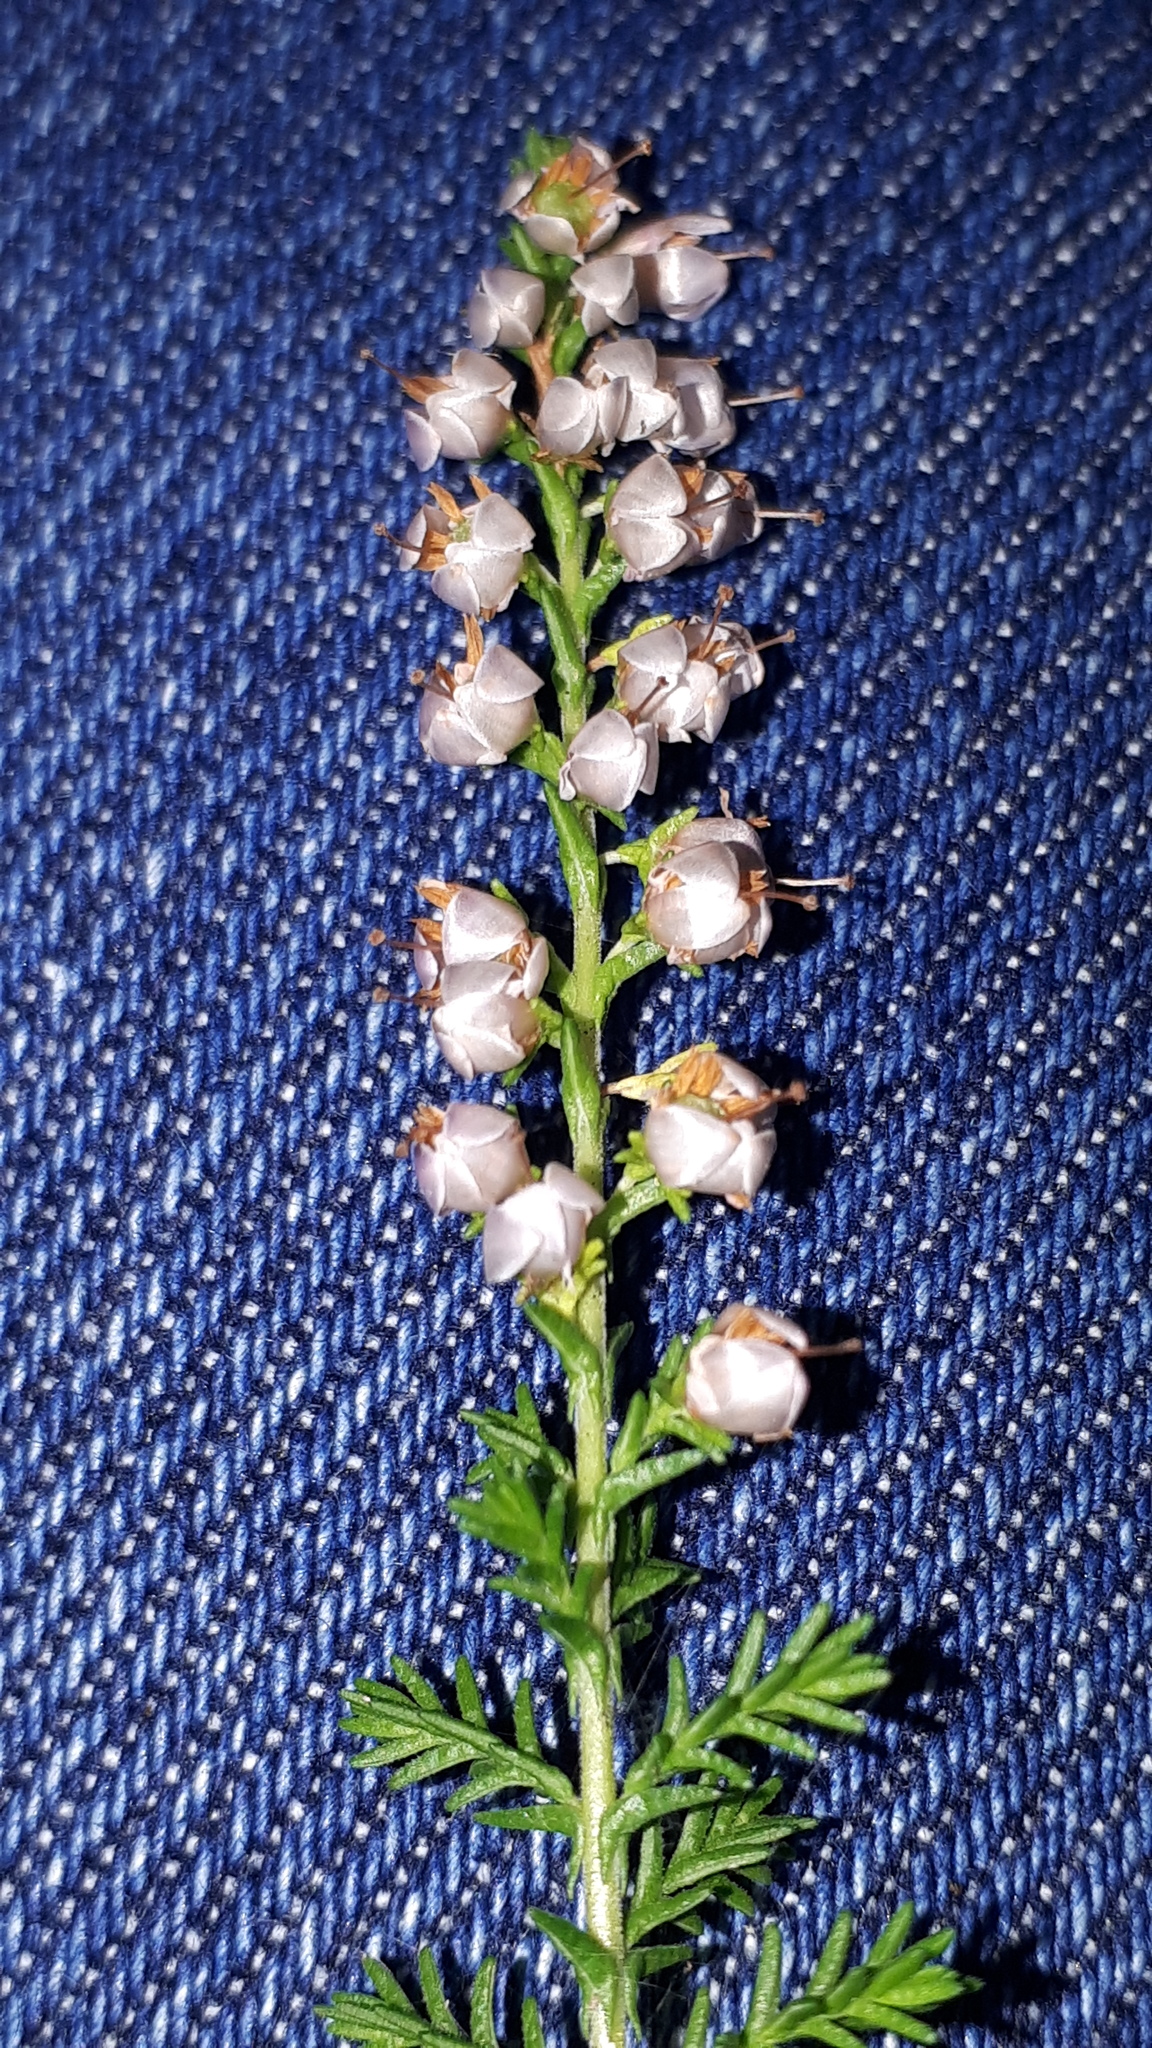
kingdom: Plantae
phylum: Tracheophyta
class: Magnoliopsida
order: Ericales
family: Ericaceae
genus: Calluna
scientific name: Calluna vulgaris
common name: Heather
